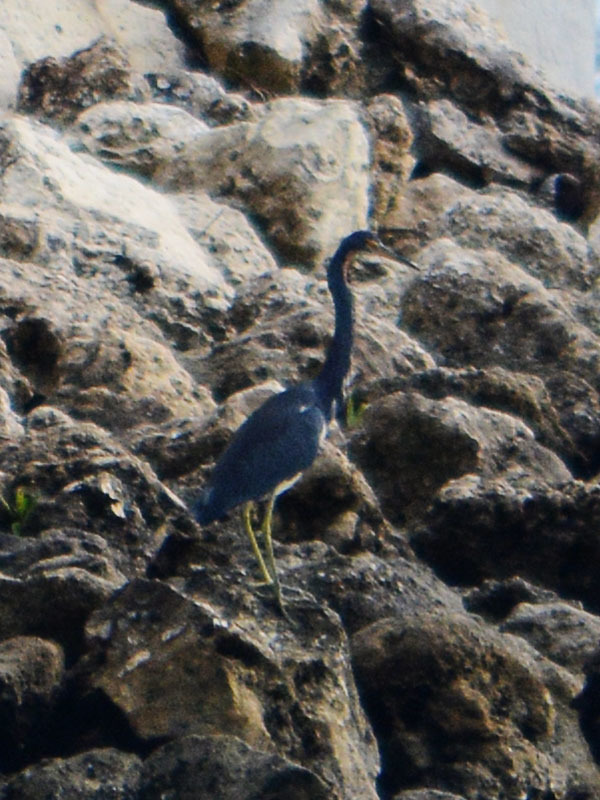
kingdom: Animalia
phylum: Chordata
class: Aves
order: Pelecaniformes
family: Ardeidae
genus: Egretta
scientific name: Egretta tricolor
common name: Tricolored heron
